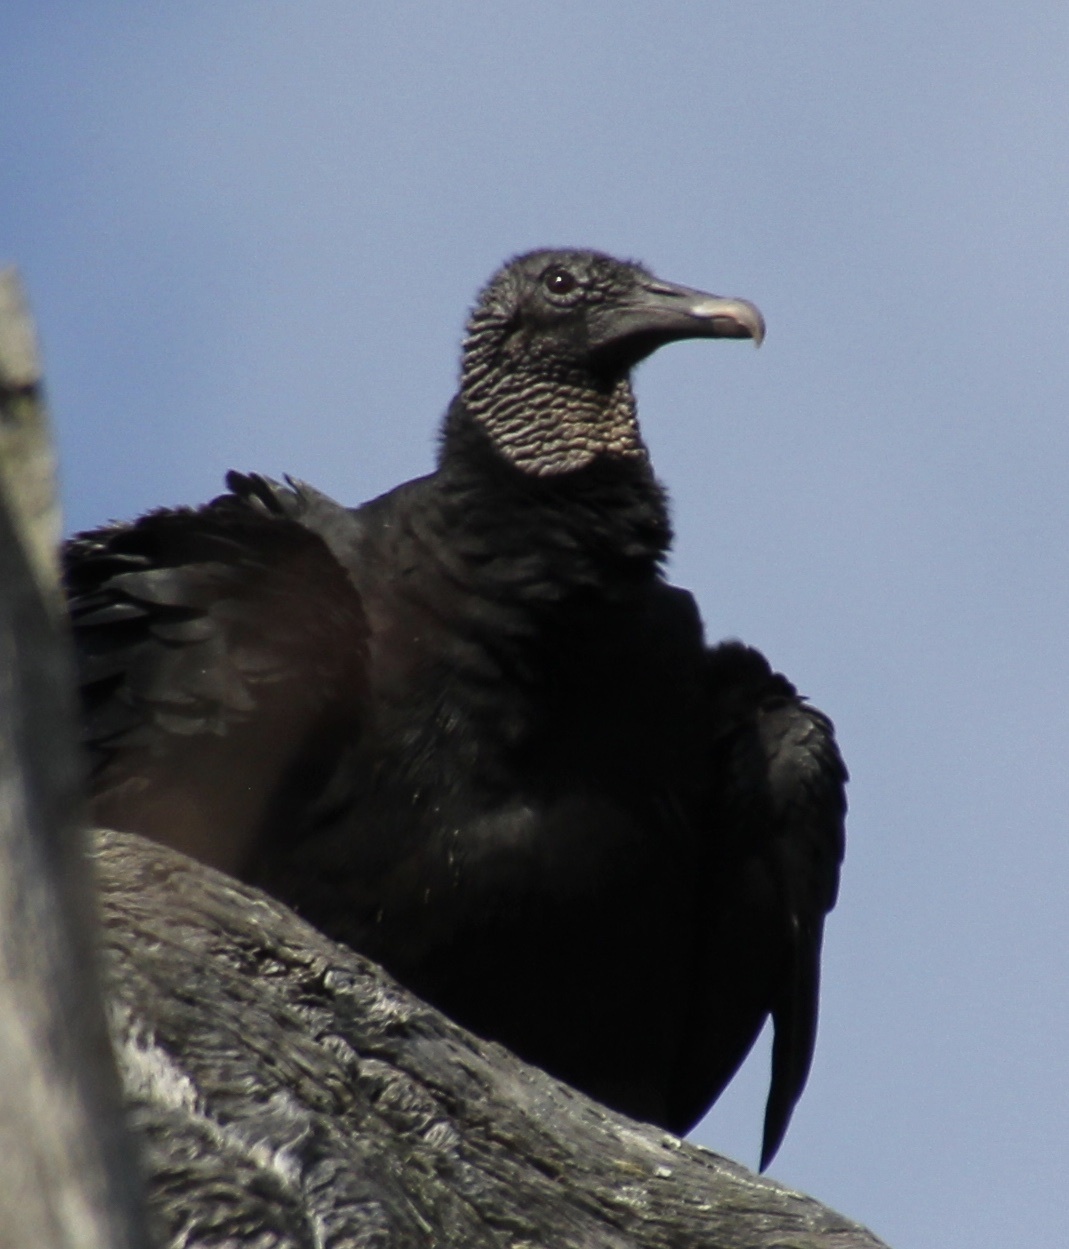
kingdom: Animalia
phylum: Chordata
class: Aves
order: Accipitriformes
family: Cathartidae
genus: Coragyps
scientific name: Coragyps atratus
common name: Black vulture
